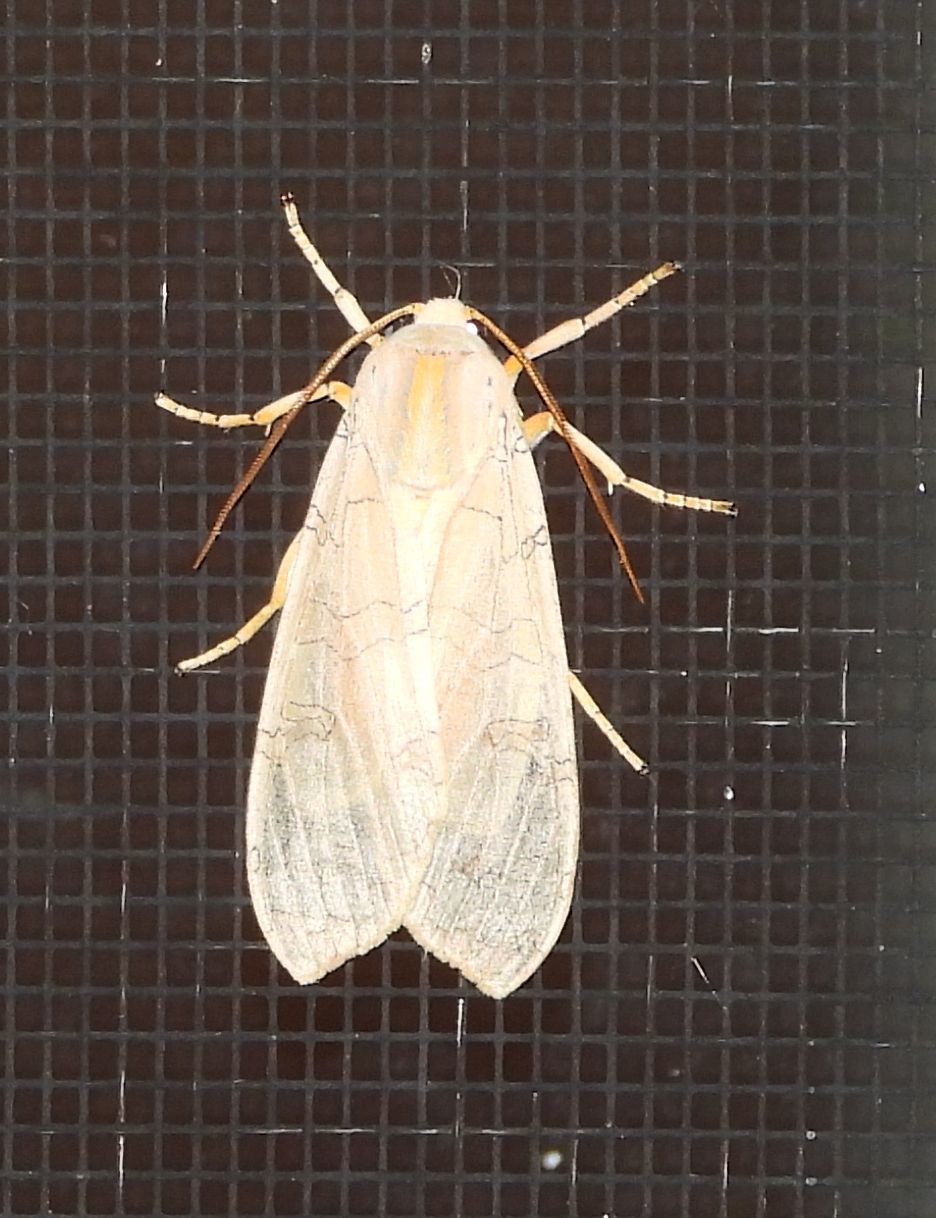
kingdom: Animalia
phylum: Arthropoda
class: Insecta
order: Lepidoptera
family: Erebidae
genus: Halysidota
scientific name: Halysidota tessellaris
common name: Banded tussock moth
